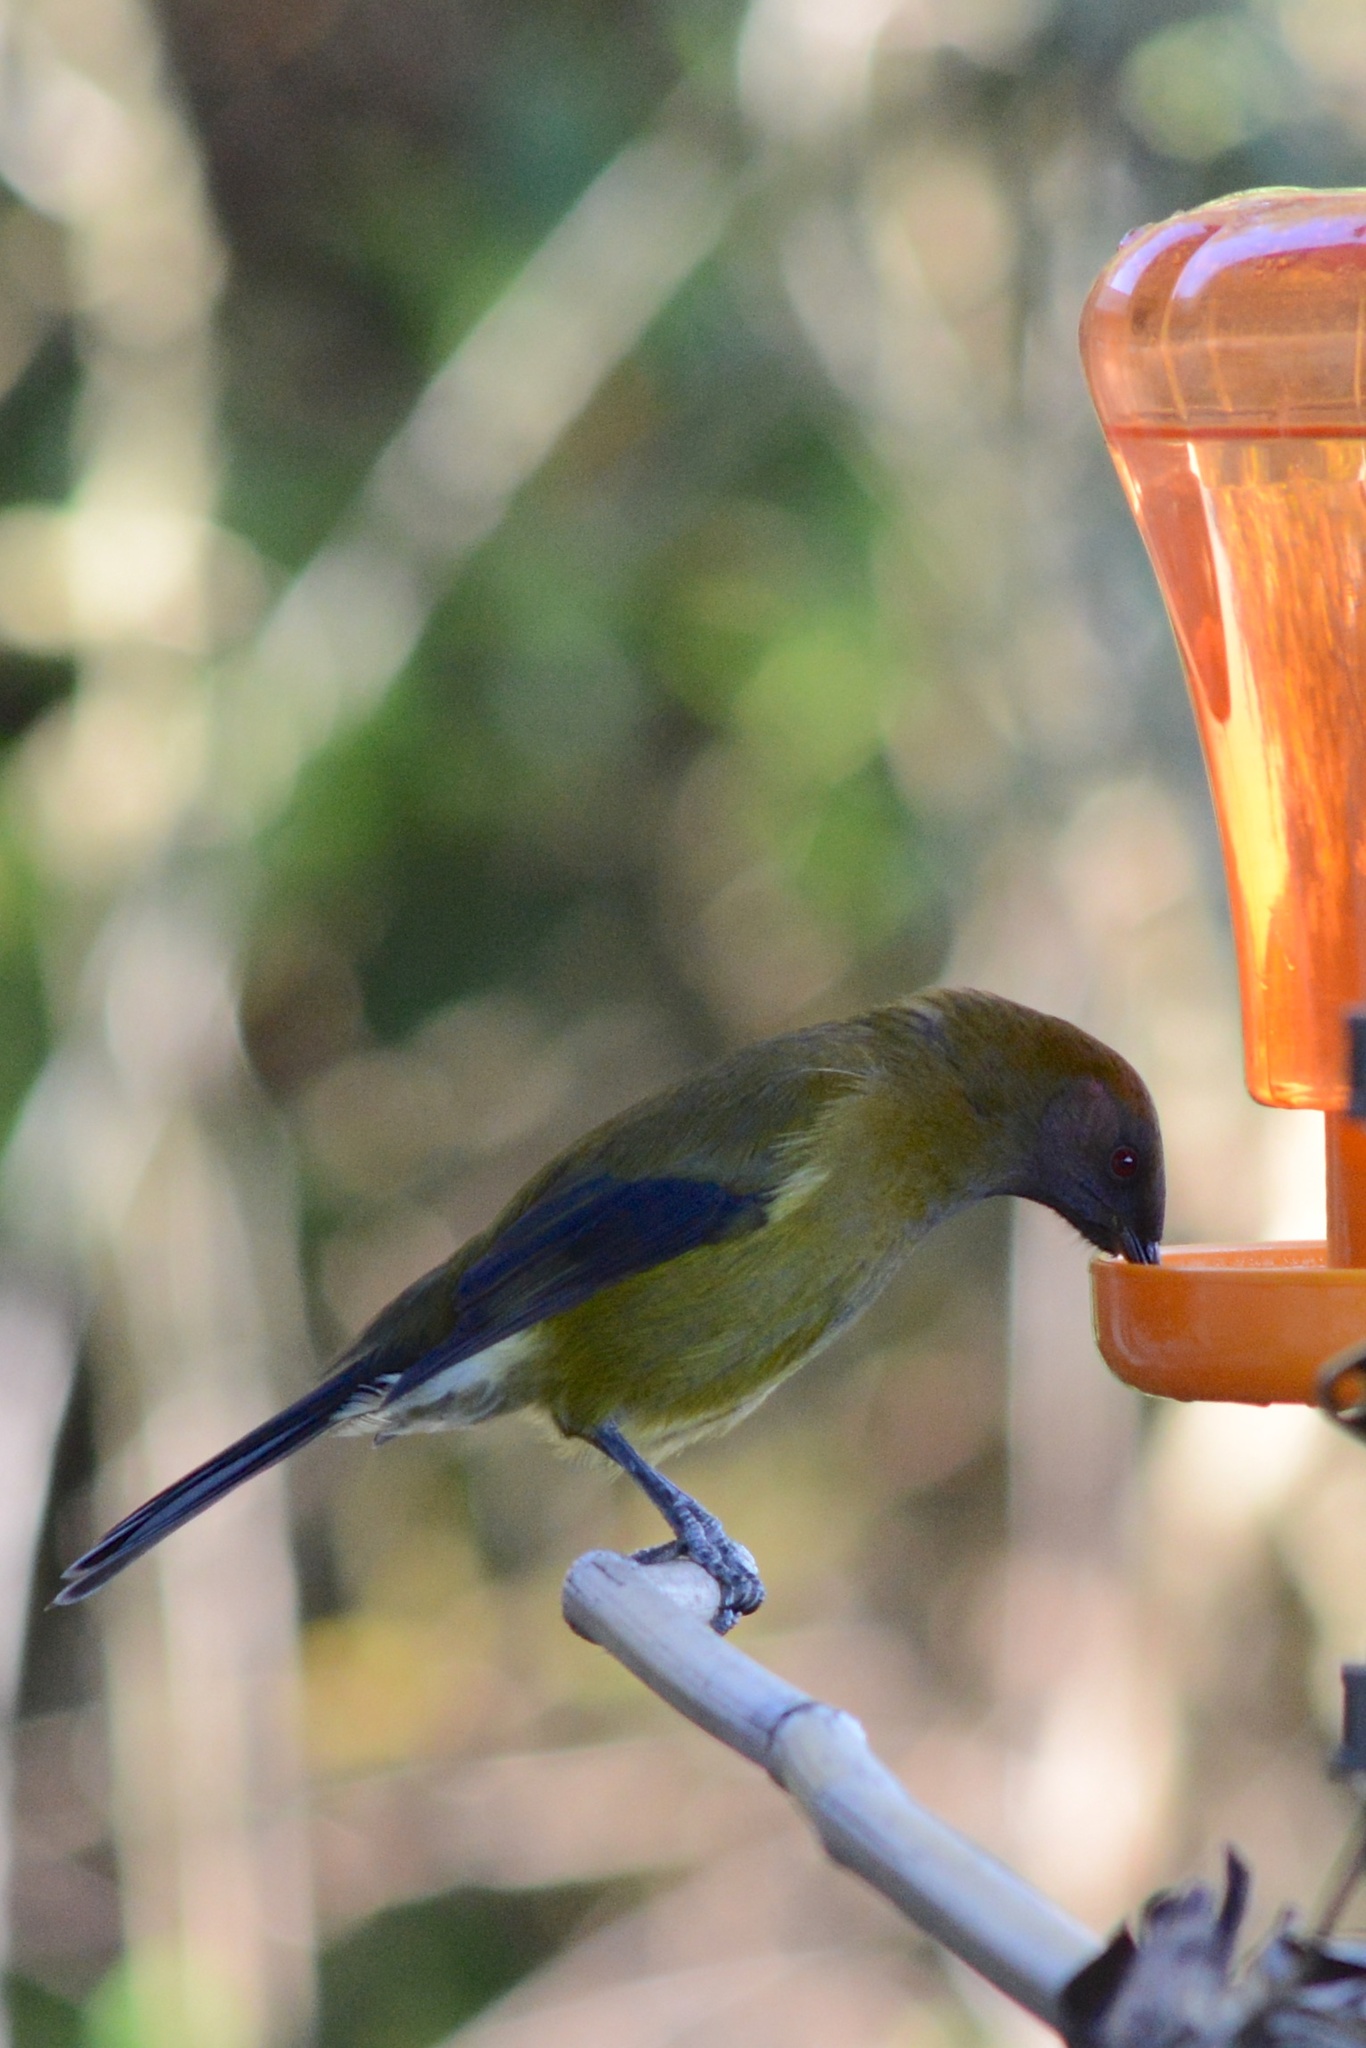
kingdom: Animalia
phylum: Chordata
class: Aves
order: Passeriformes
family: Meliphagidae
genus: Anthornis
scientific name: Anthornis melanura
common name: New zealand bellbird
